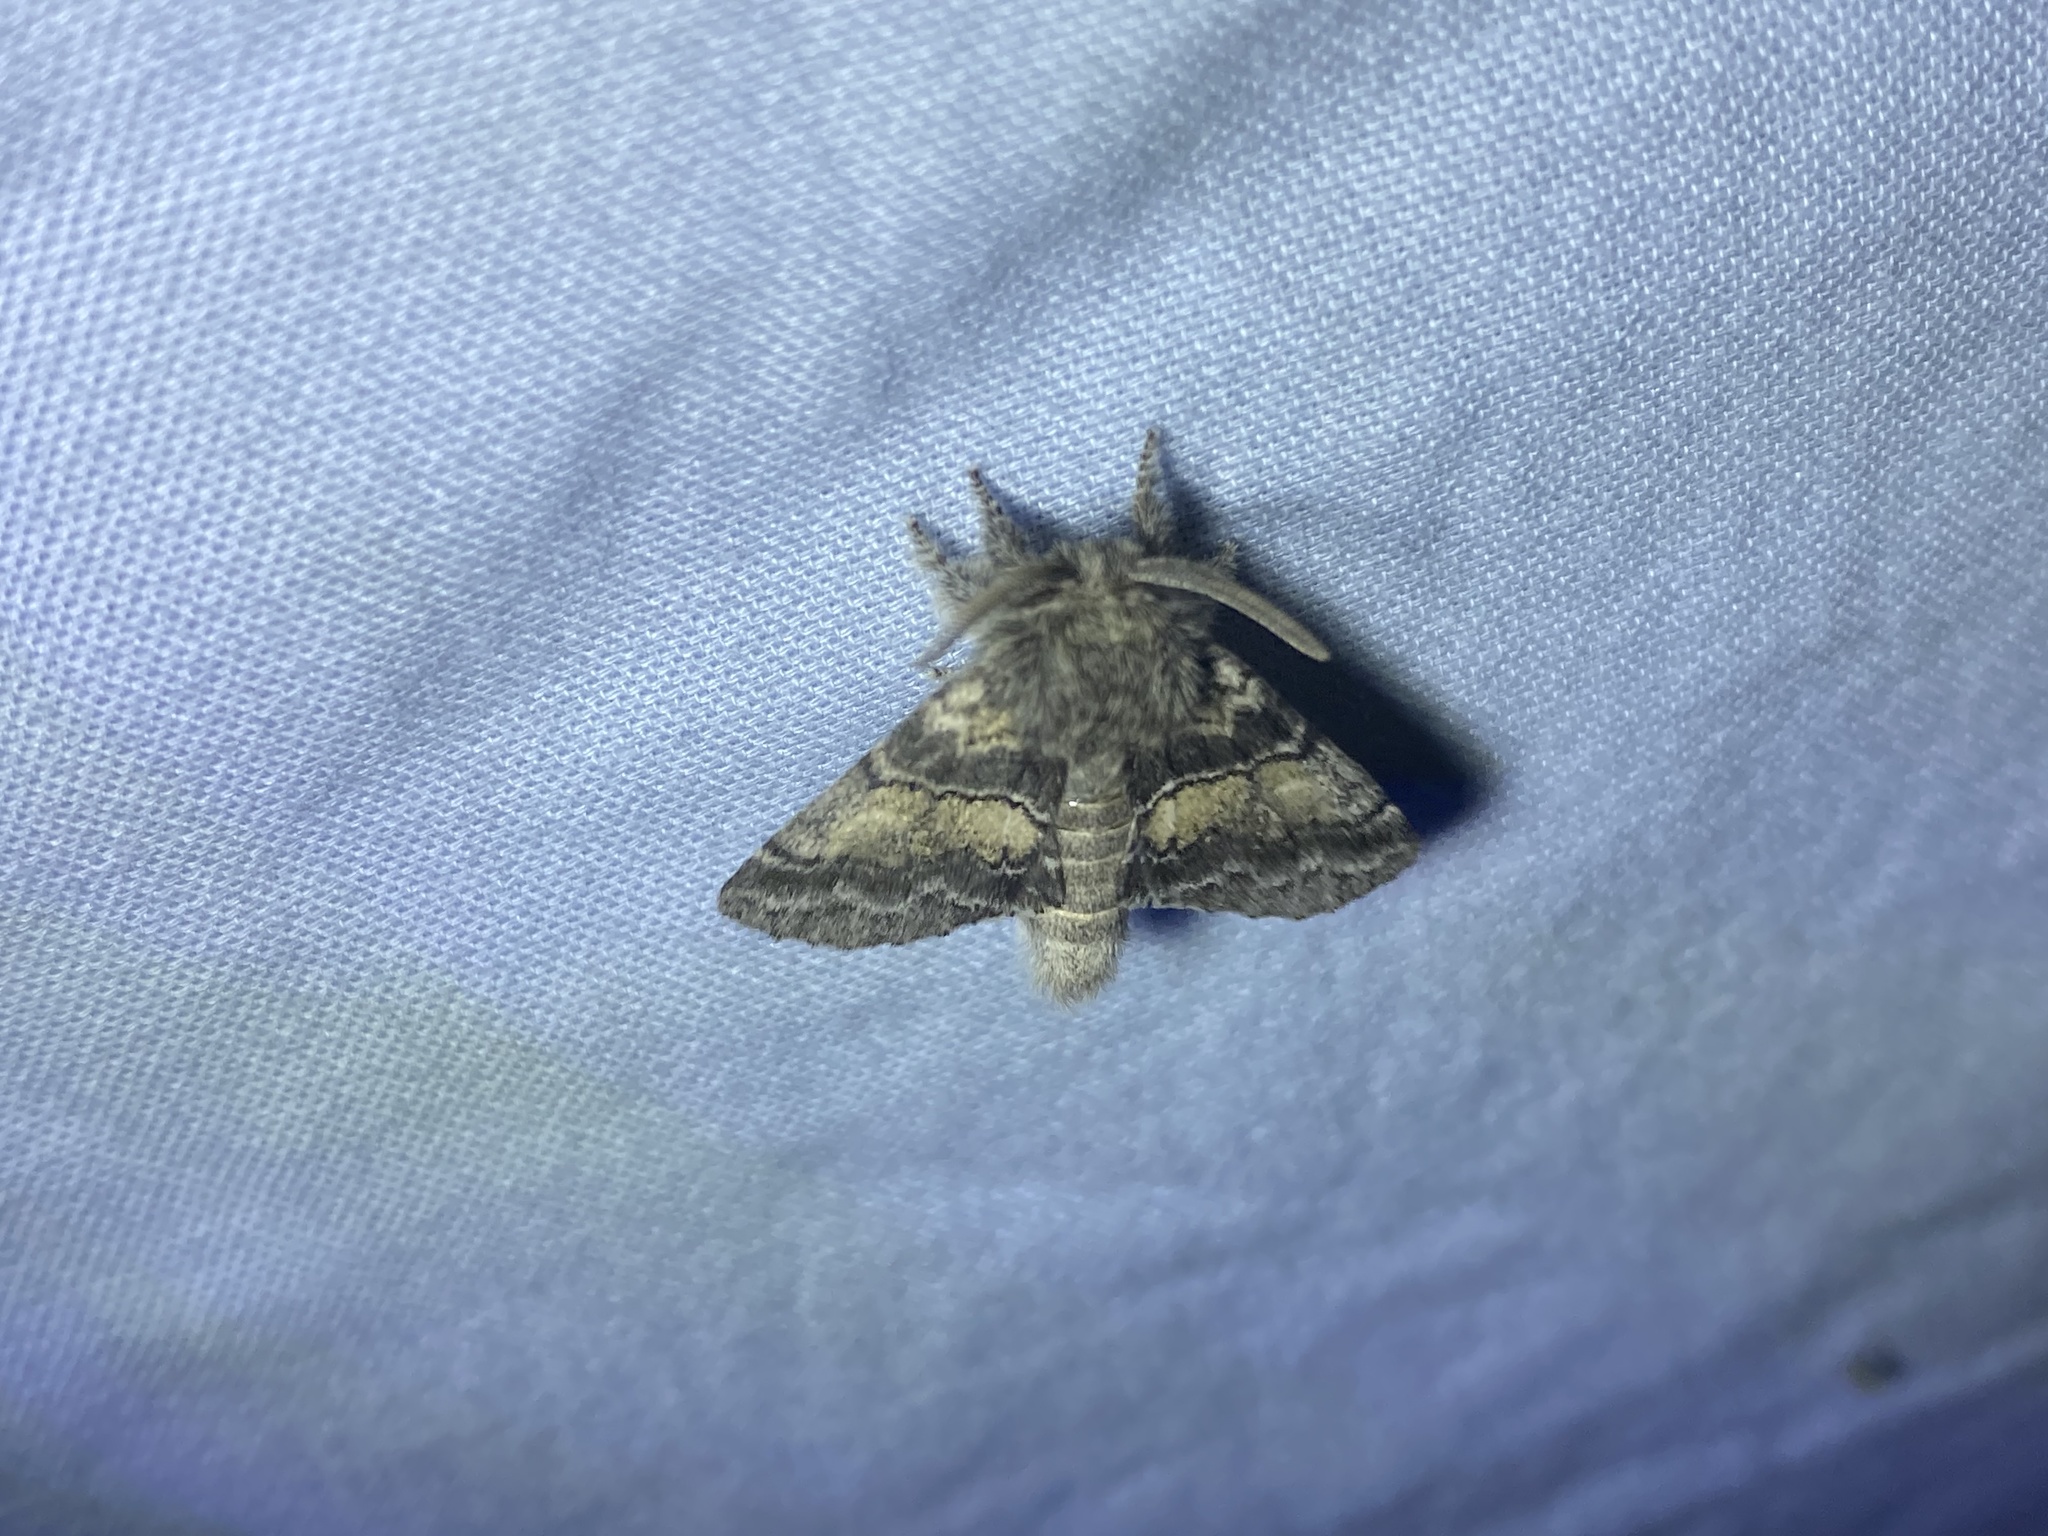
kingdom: Animalia
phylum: Arthropoda
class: Insecta
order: Lepidoptera
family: Notodontidae
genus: Gluphisia
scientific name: Gluphisia septentrionis
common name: Common gluphisia
